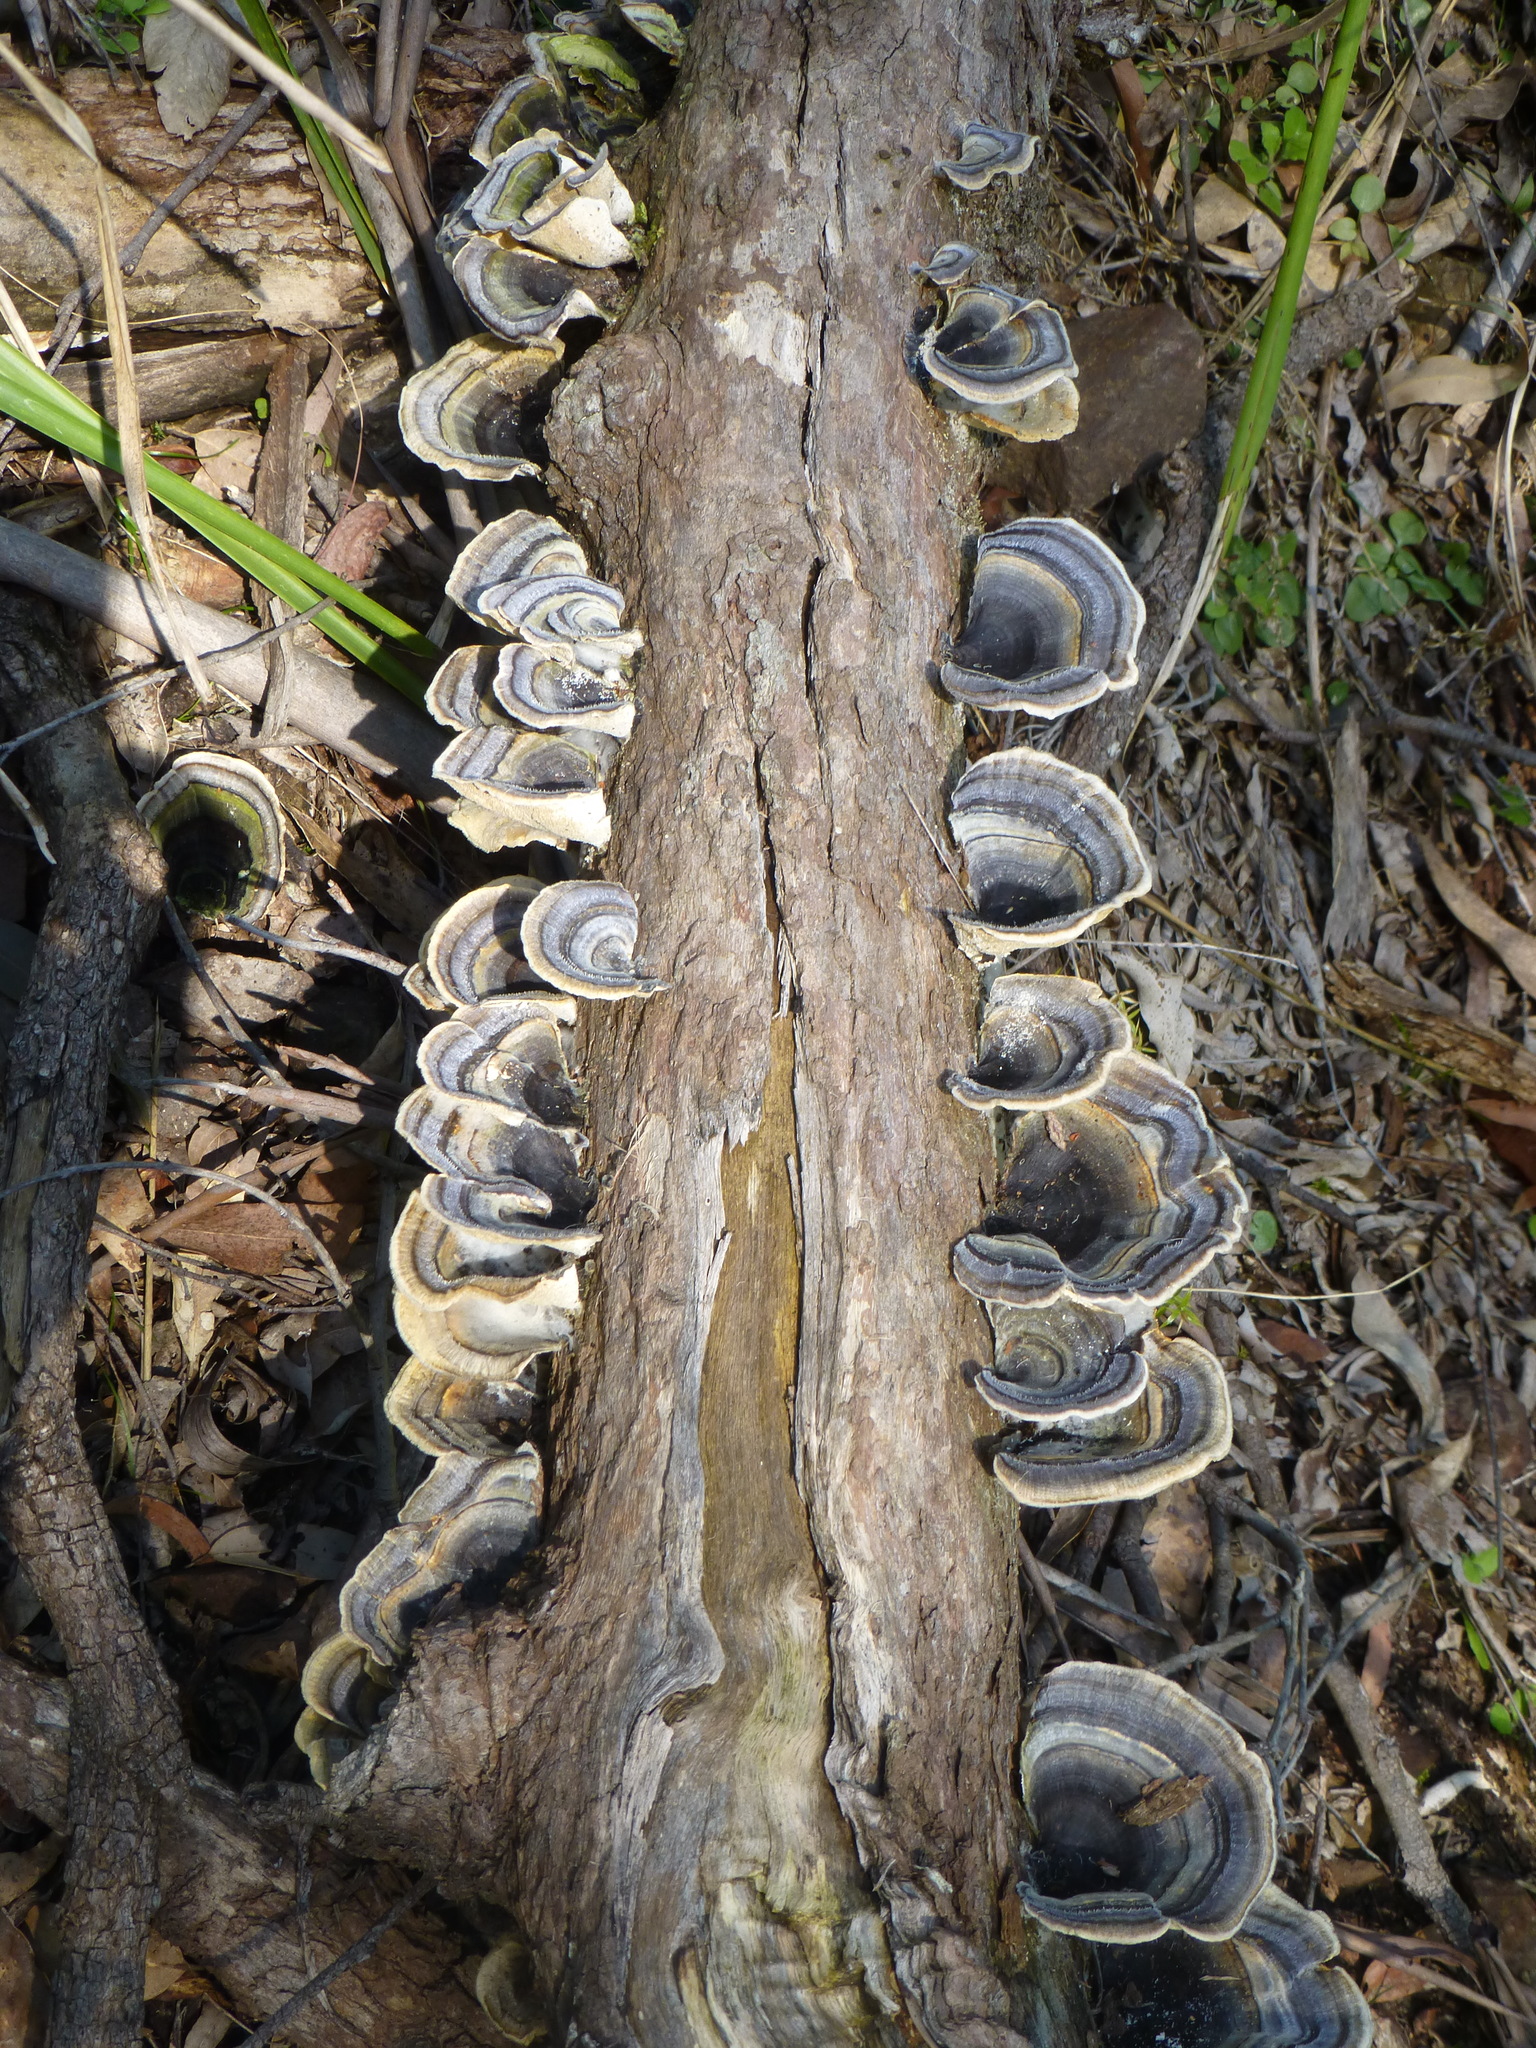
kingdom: Fungi
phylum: Basidiomycota
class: Agaricomycetes
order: Polyporales
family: Polyporaceae
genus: Trametes
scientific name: Trametes versicolor
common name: Turkeytail
